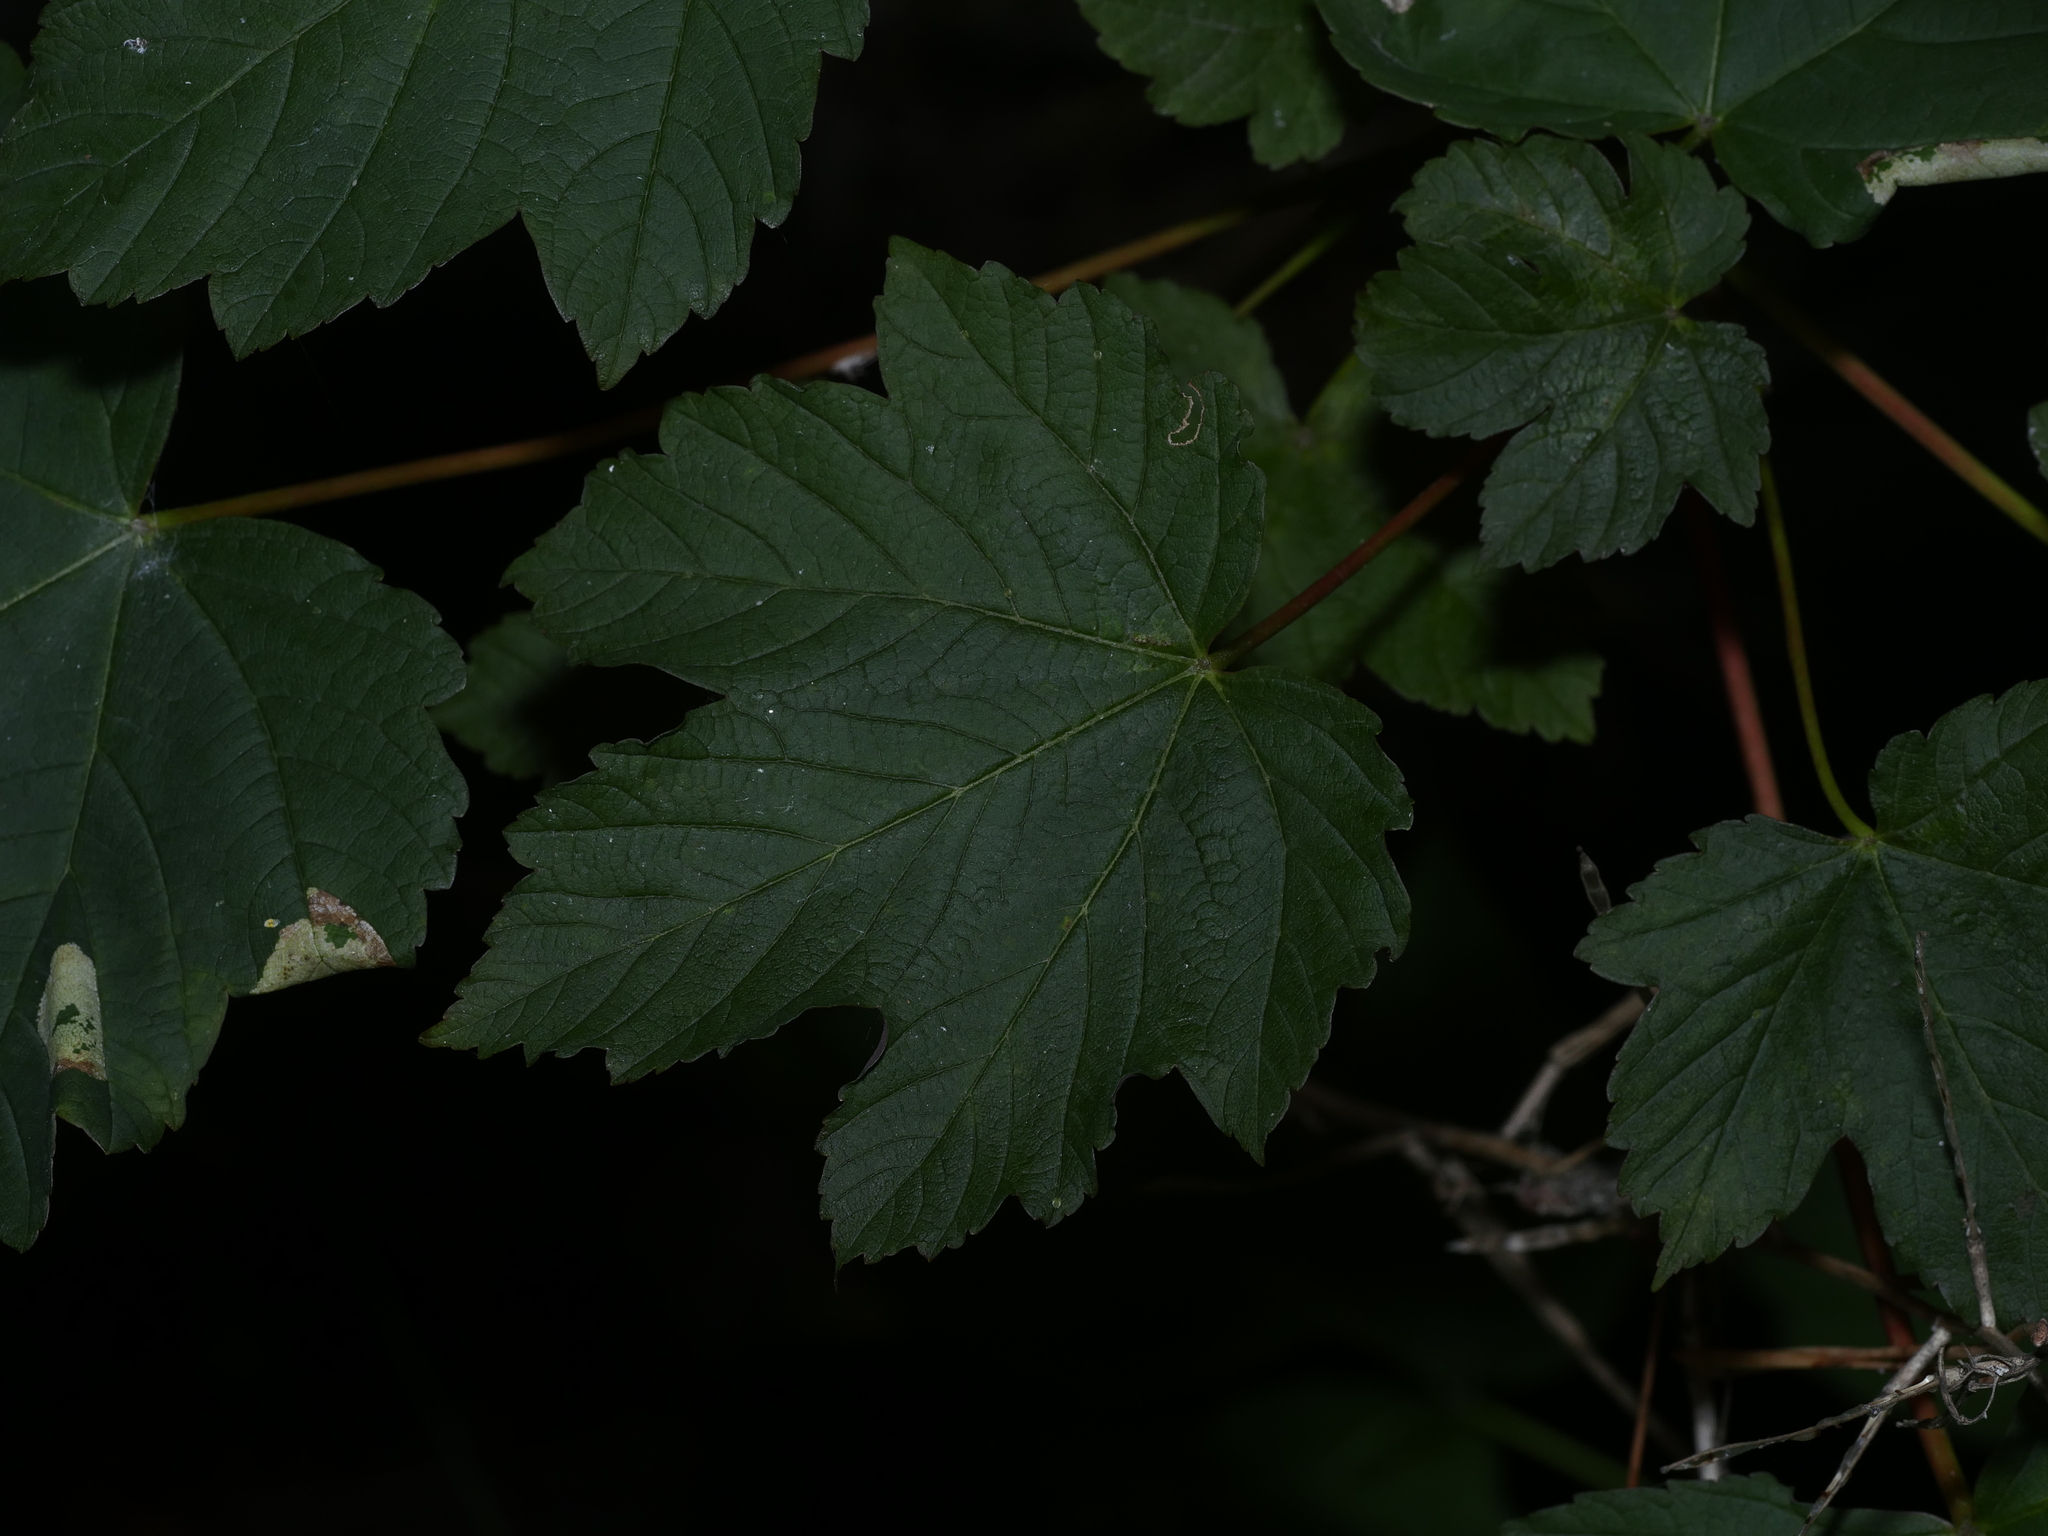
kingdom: Plantae
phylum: Tracheophyta
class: Magnoliopsida
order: Sapindales
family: Sapindaceae
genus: Acer
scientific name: Acer pseudoplatanus
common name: Sycamore
